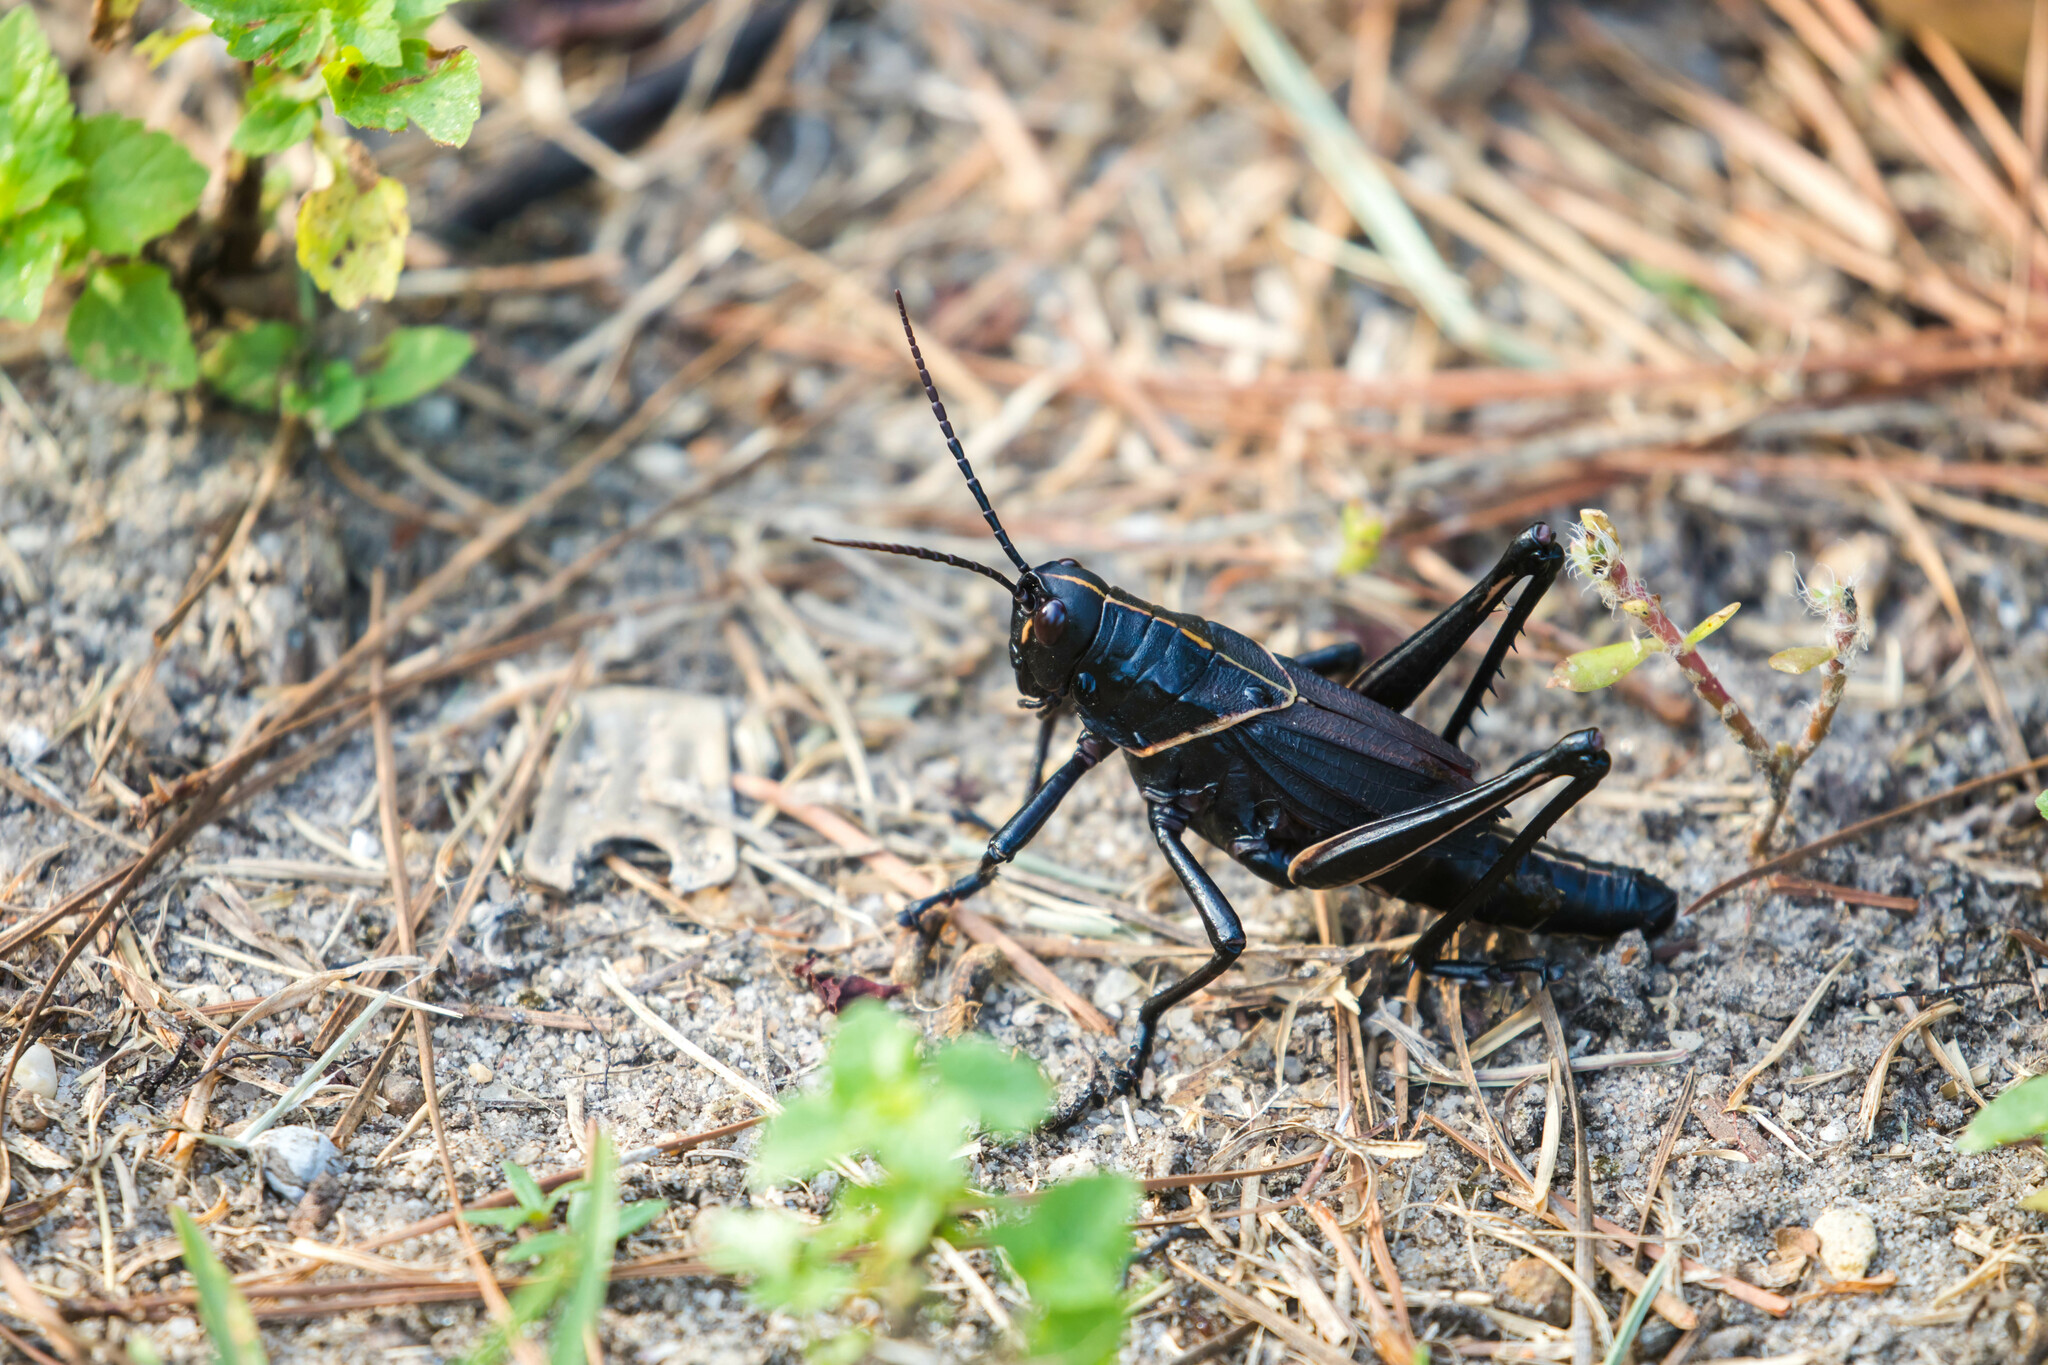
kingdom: Animalia
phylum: Arthropoda
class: Insecta
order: Orthoptera
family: Romaleidae
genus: Romalea
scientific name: Romalea microptera
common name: Eastern lubber grasshopper
